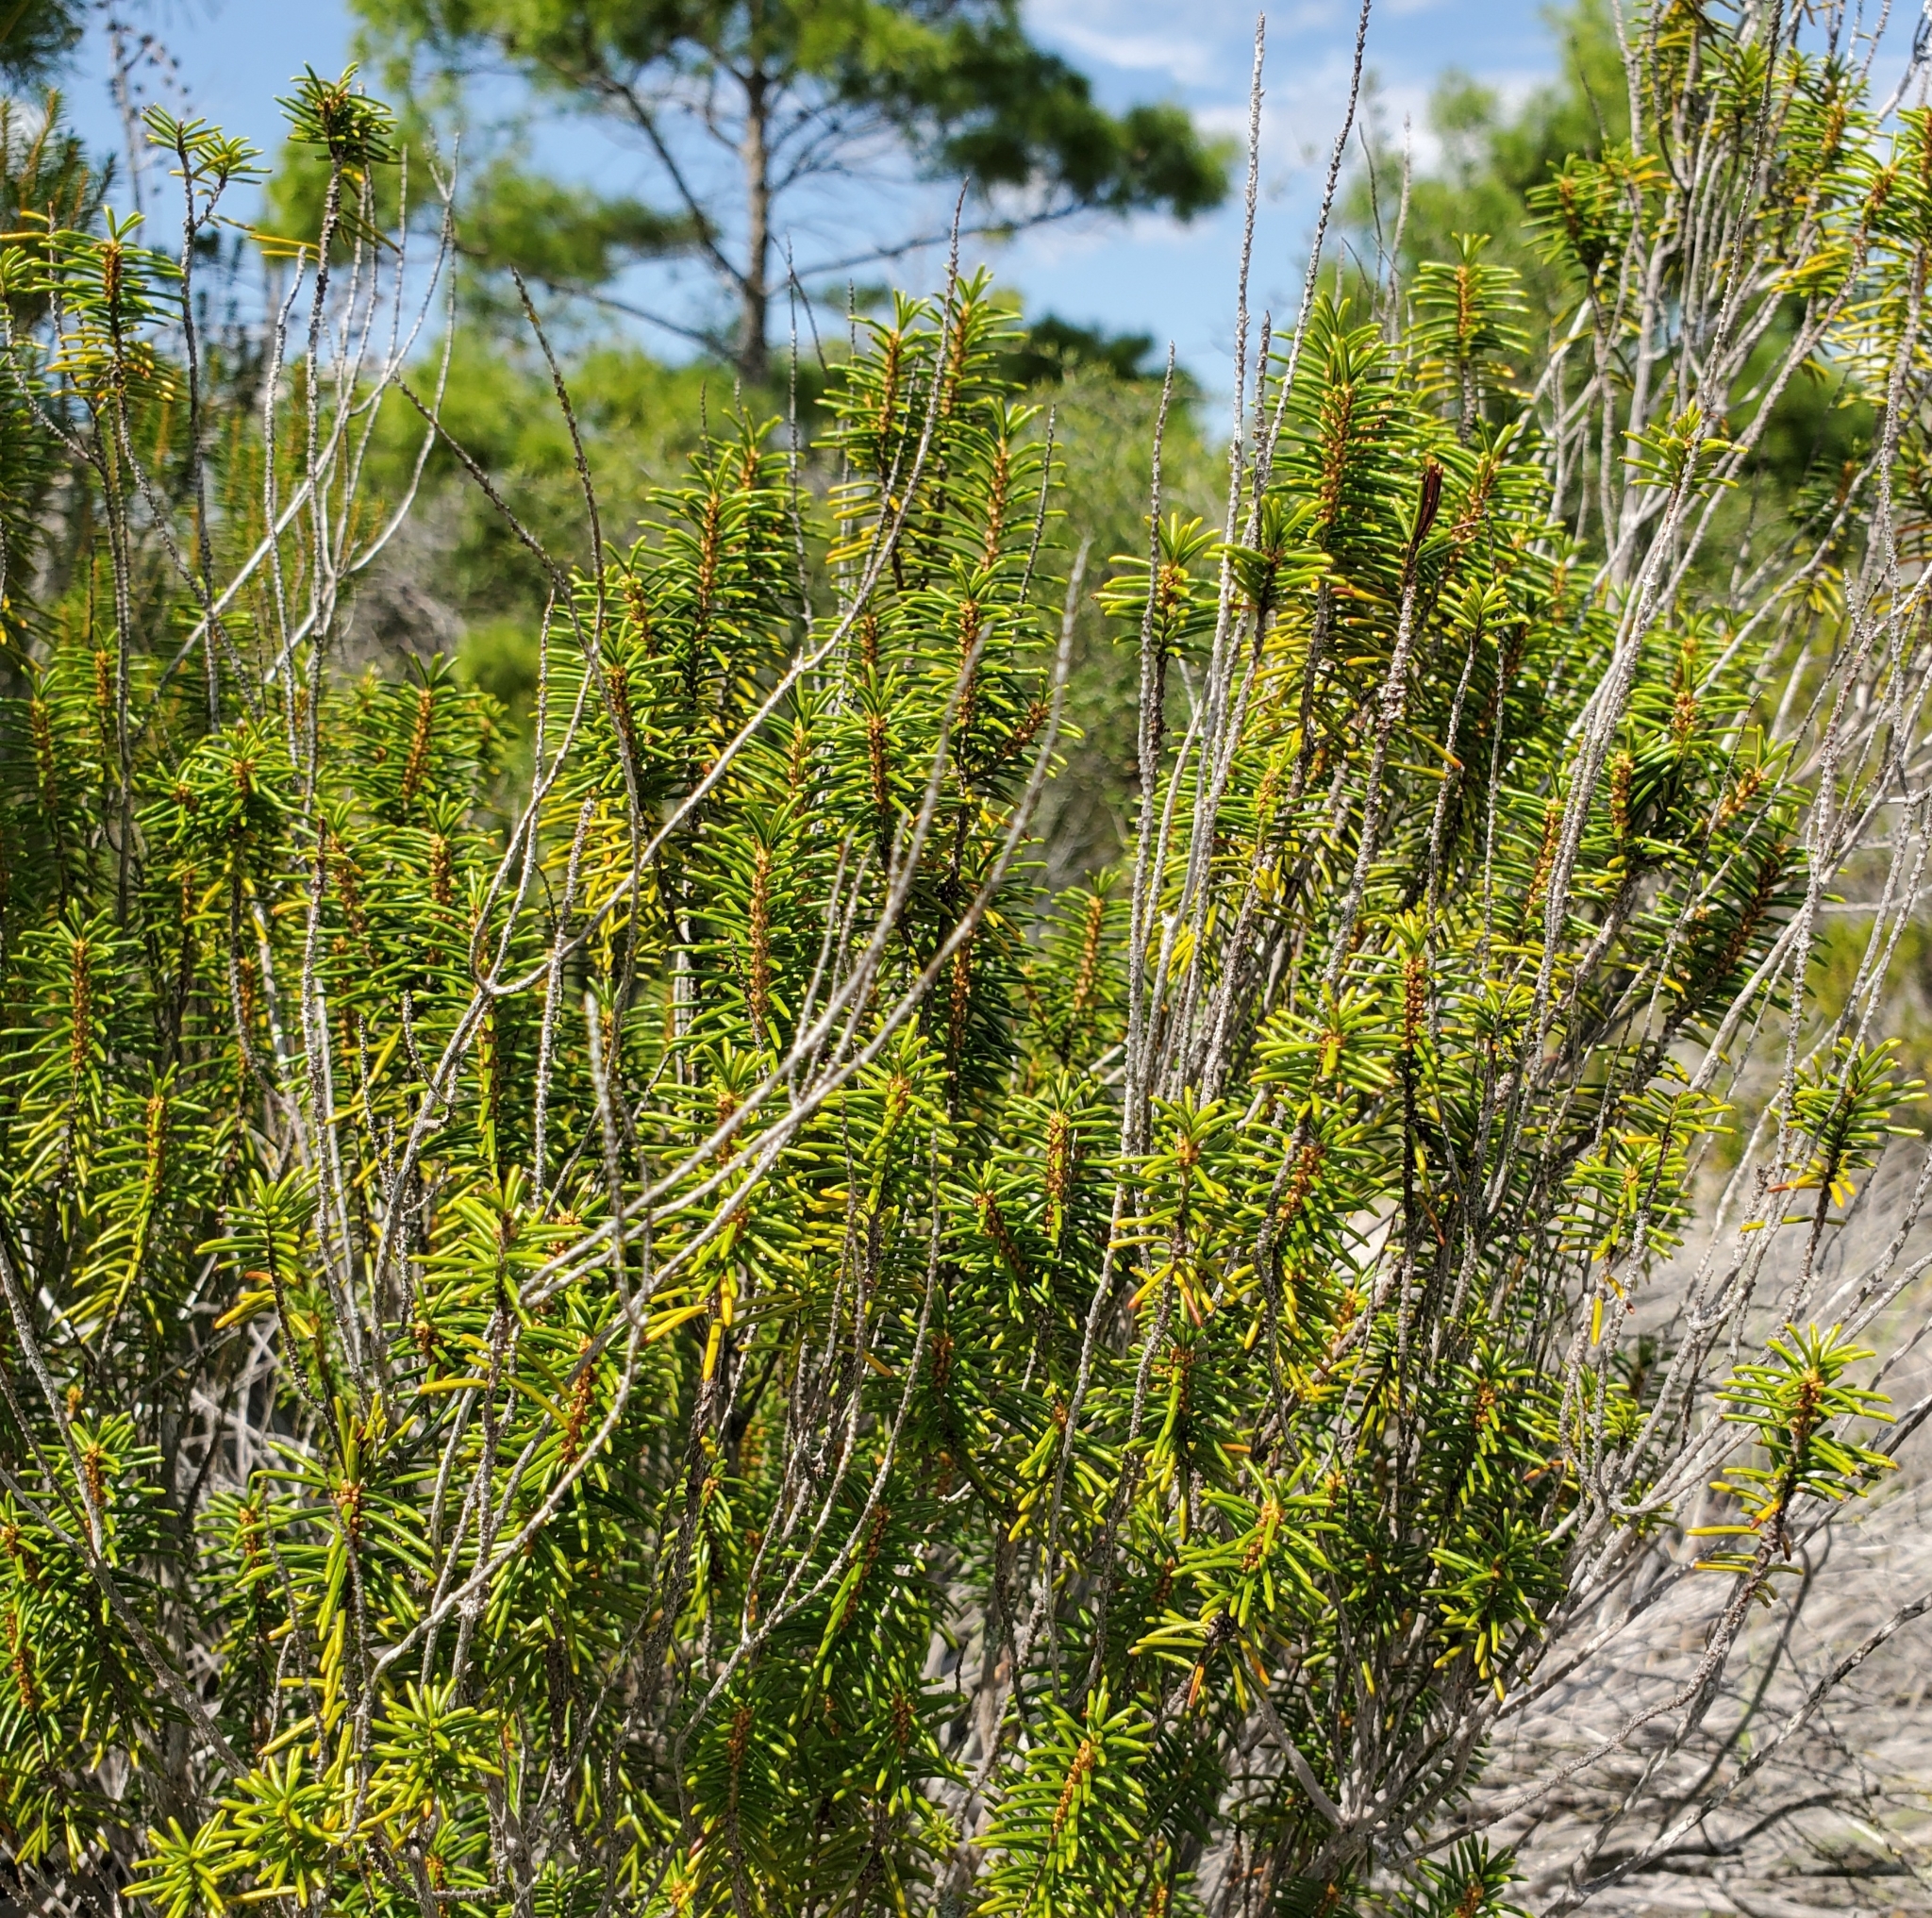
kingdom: Plantae
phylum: Tracheophyta
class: Magnoliopsida
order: Ericales
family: Ericaceae
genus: Ceratiola
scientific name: Ceratiola ericoides
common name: Sandhill-rosemary
